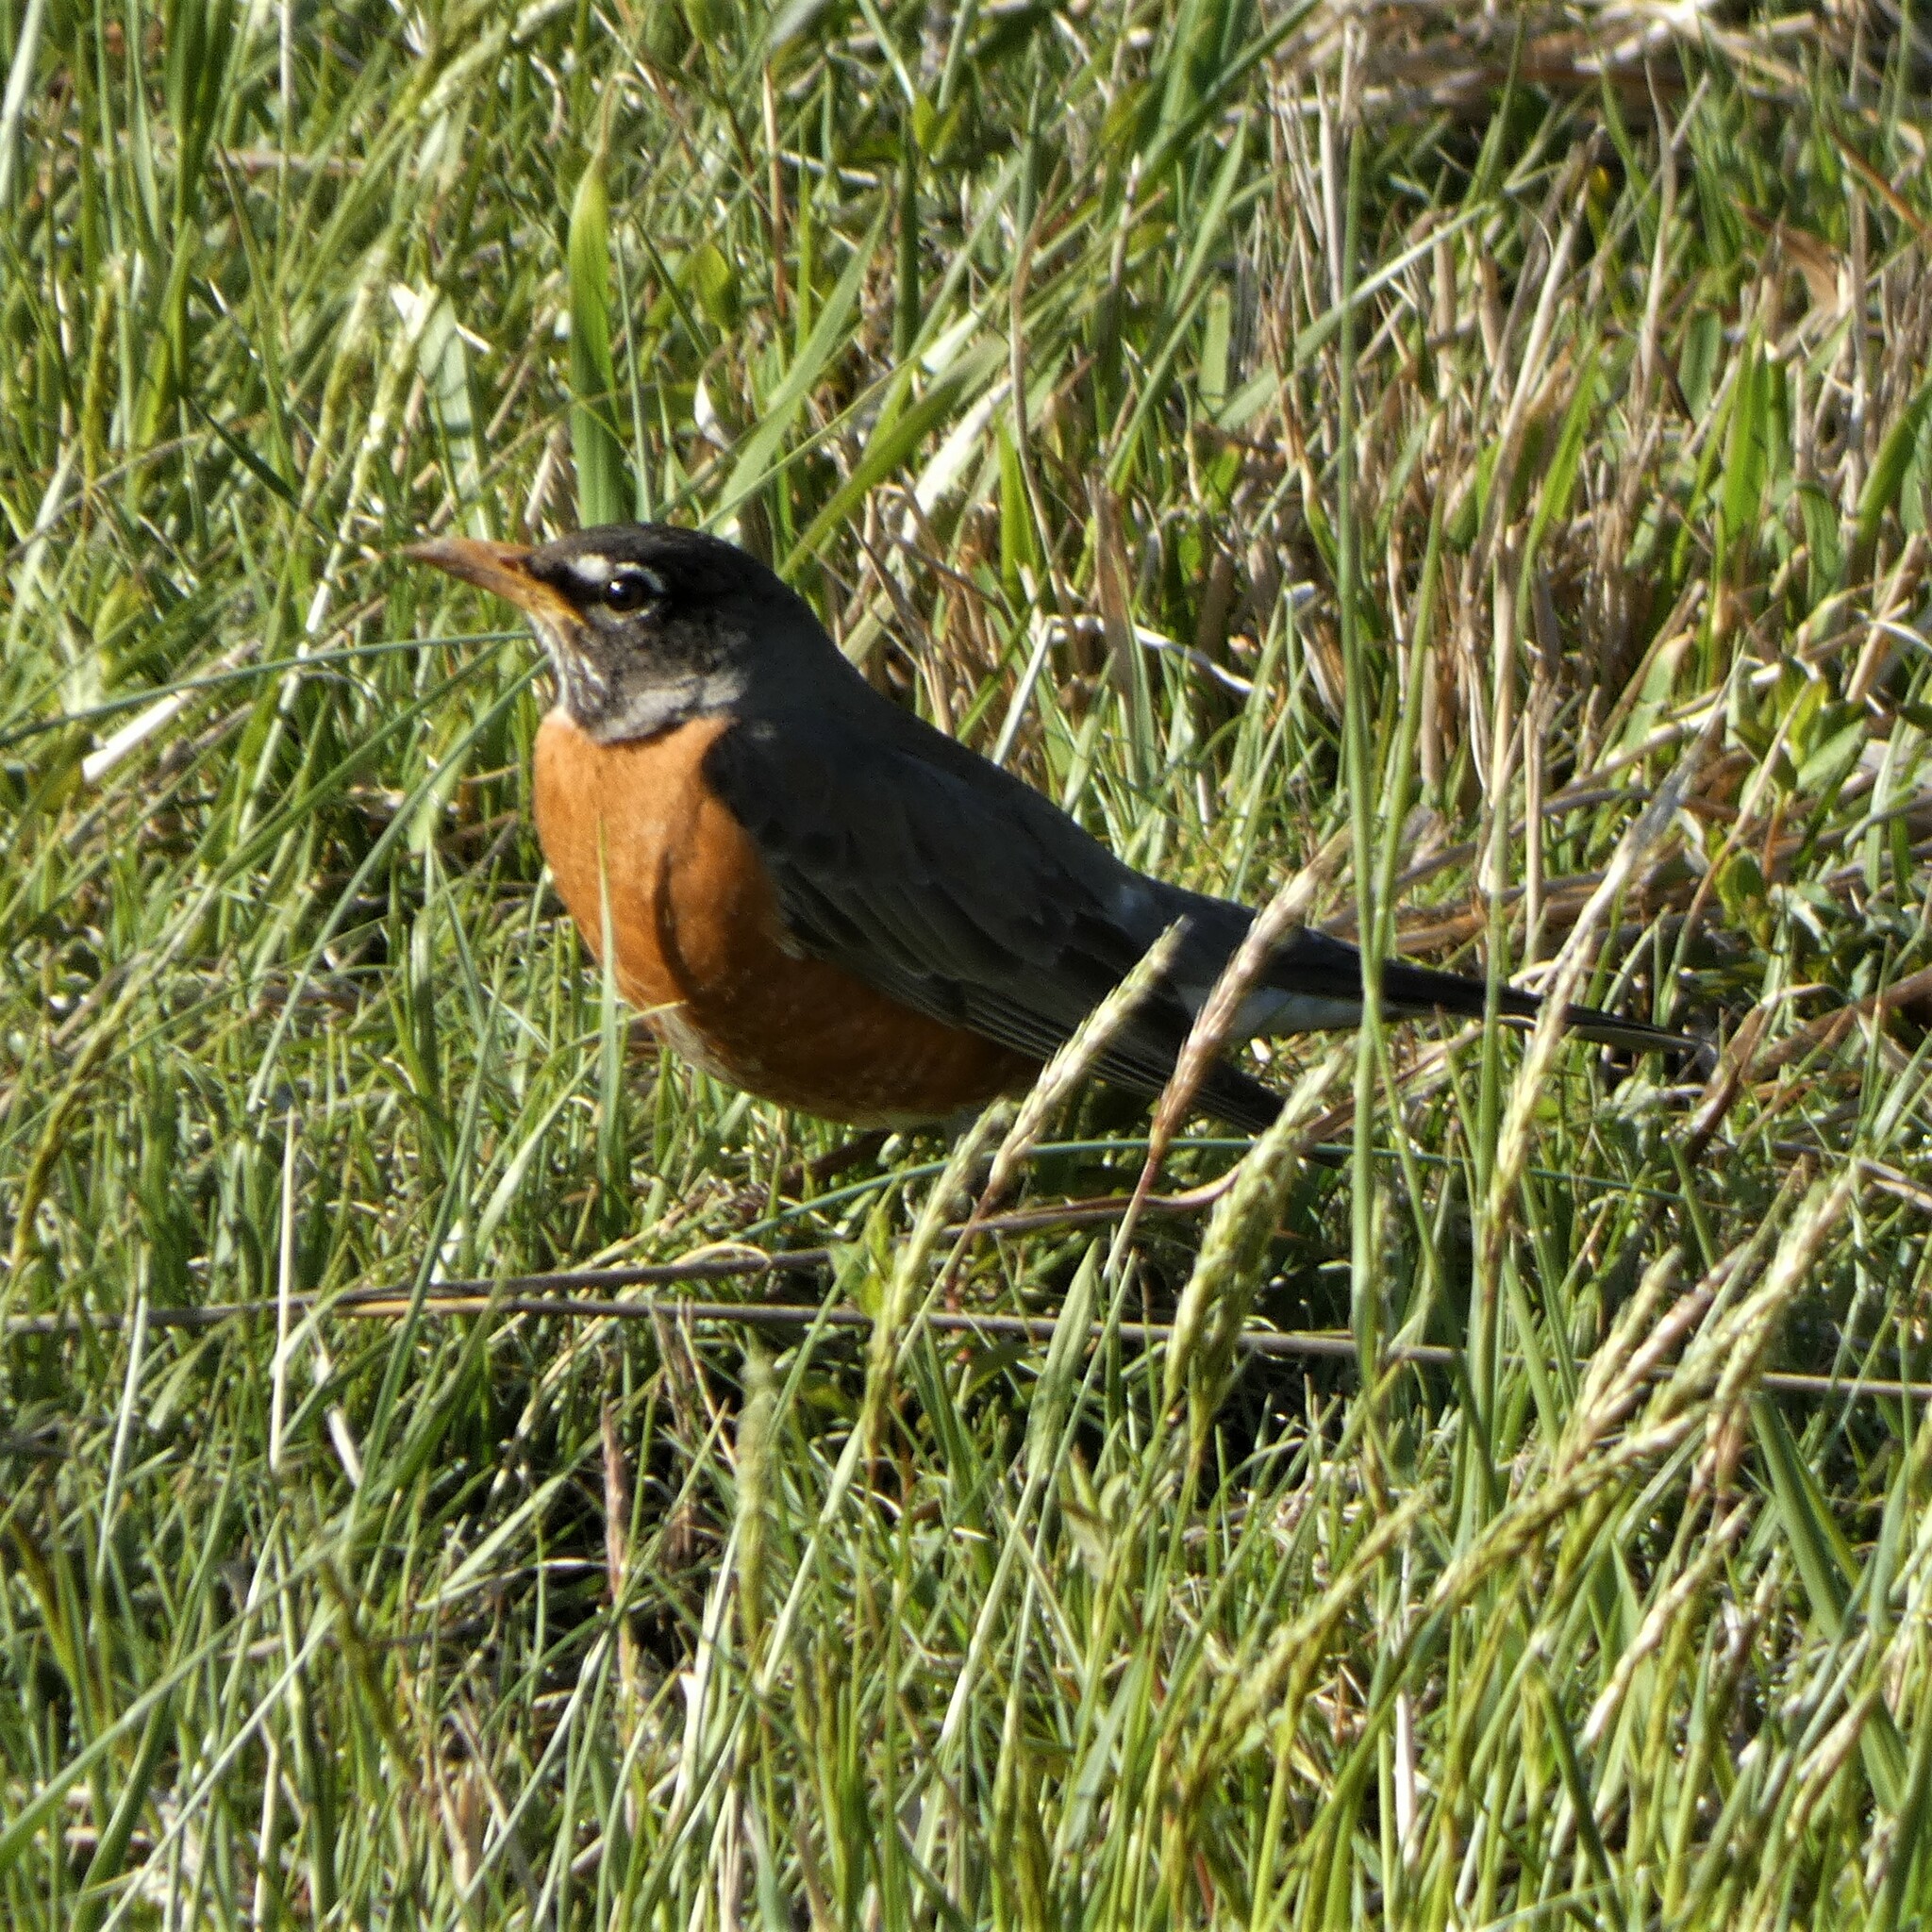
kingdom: Animalia
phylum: Chordata
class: Aves
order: Passeriformes
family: Turdidae
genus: Turdus
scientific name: Turdus migratorius
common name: American robin
